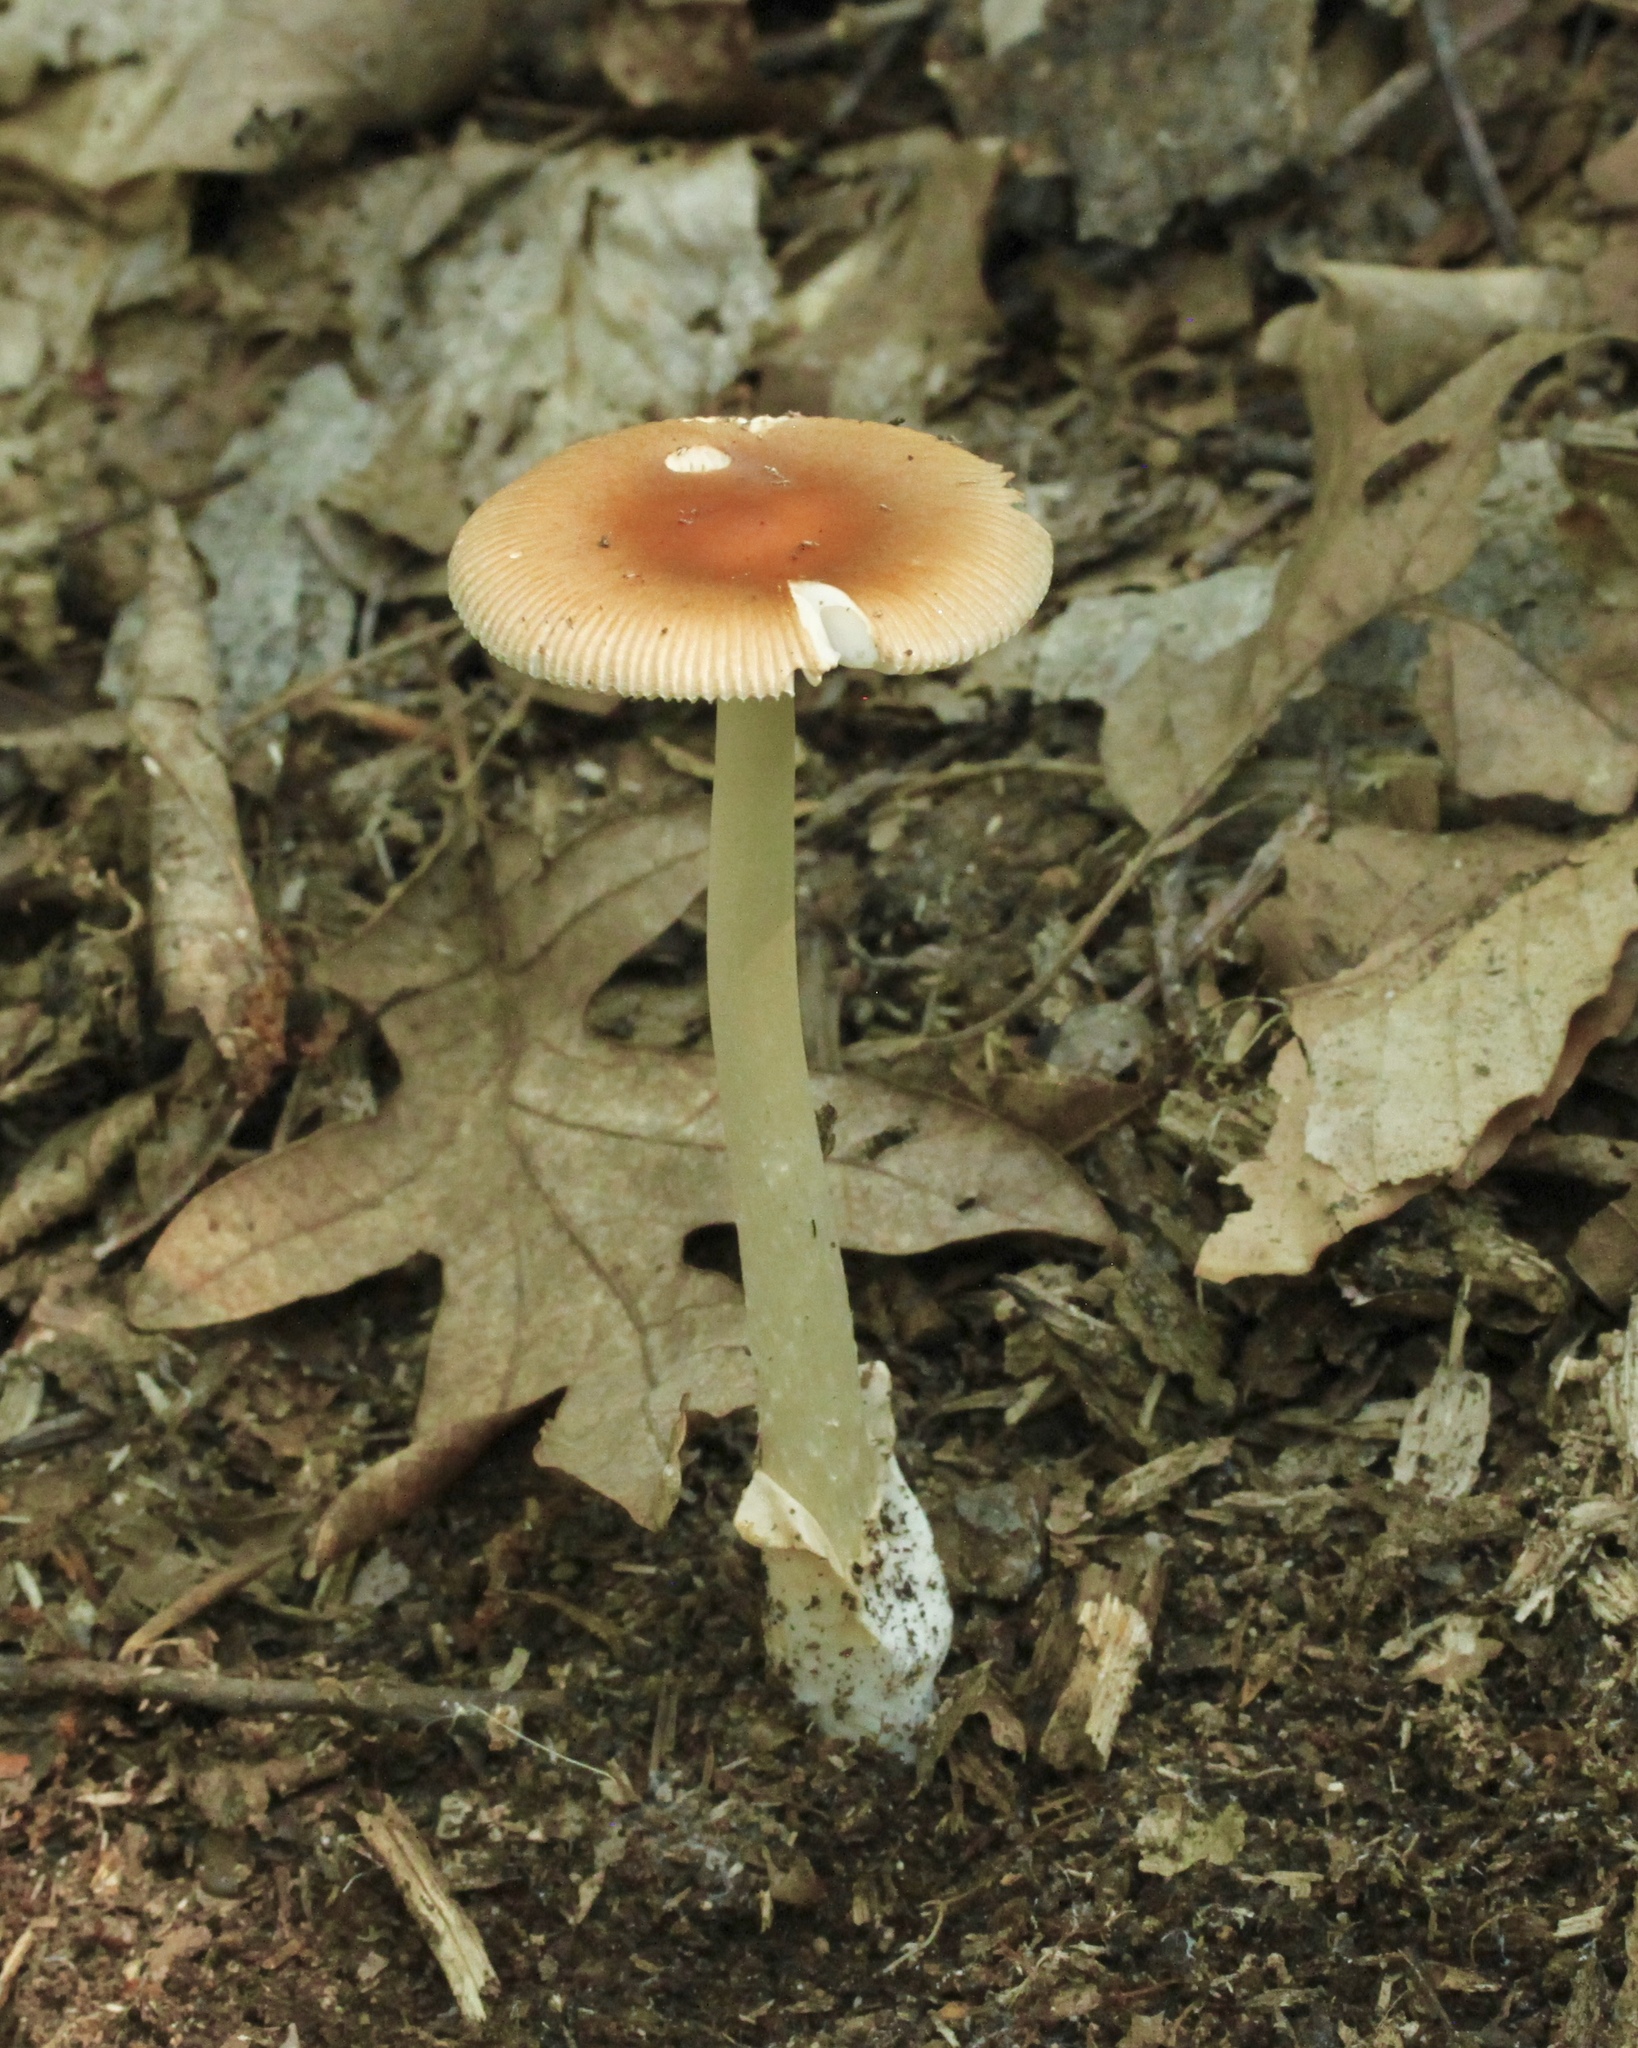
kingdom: Fungi
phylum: Basidiomycota
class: Agaricomycetes
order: Agaricales
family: Amanitaceae
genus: Amanita
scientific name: Amanita fulva
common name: Tawny grisette
